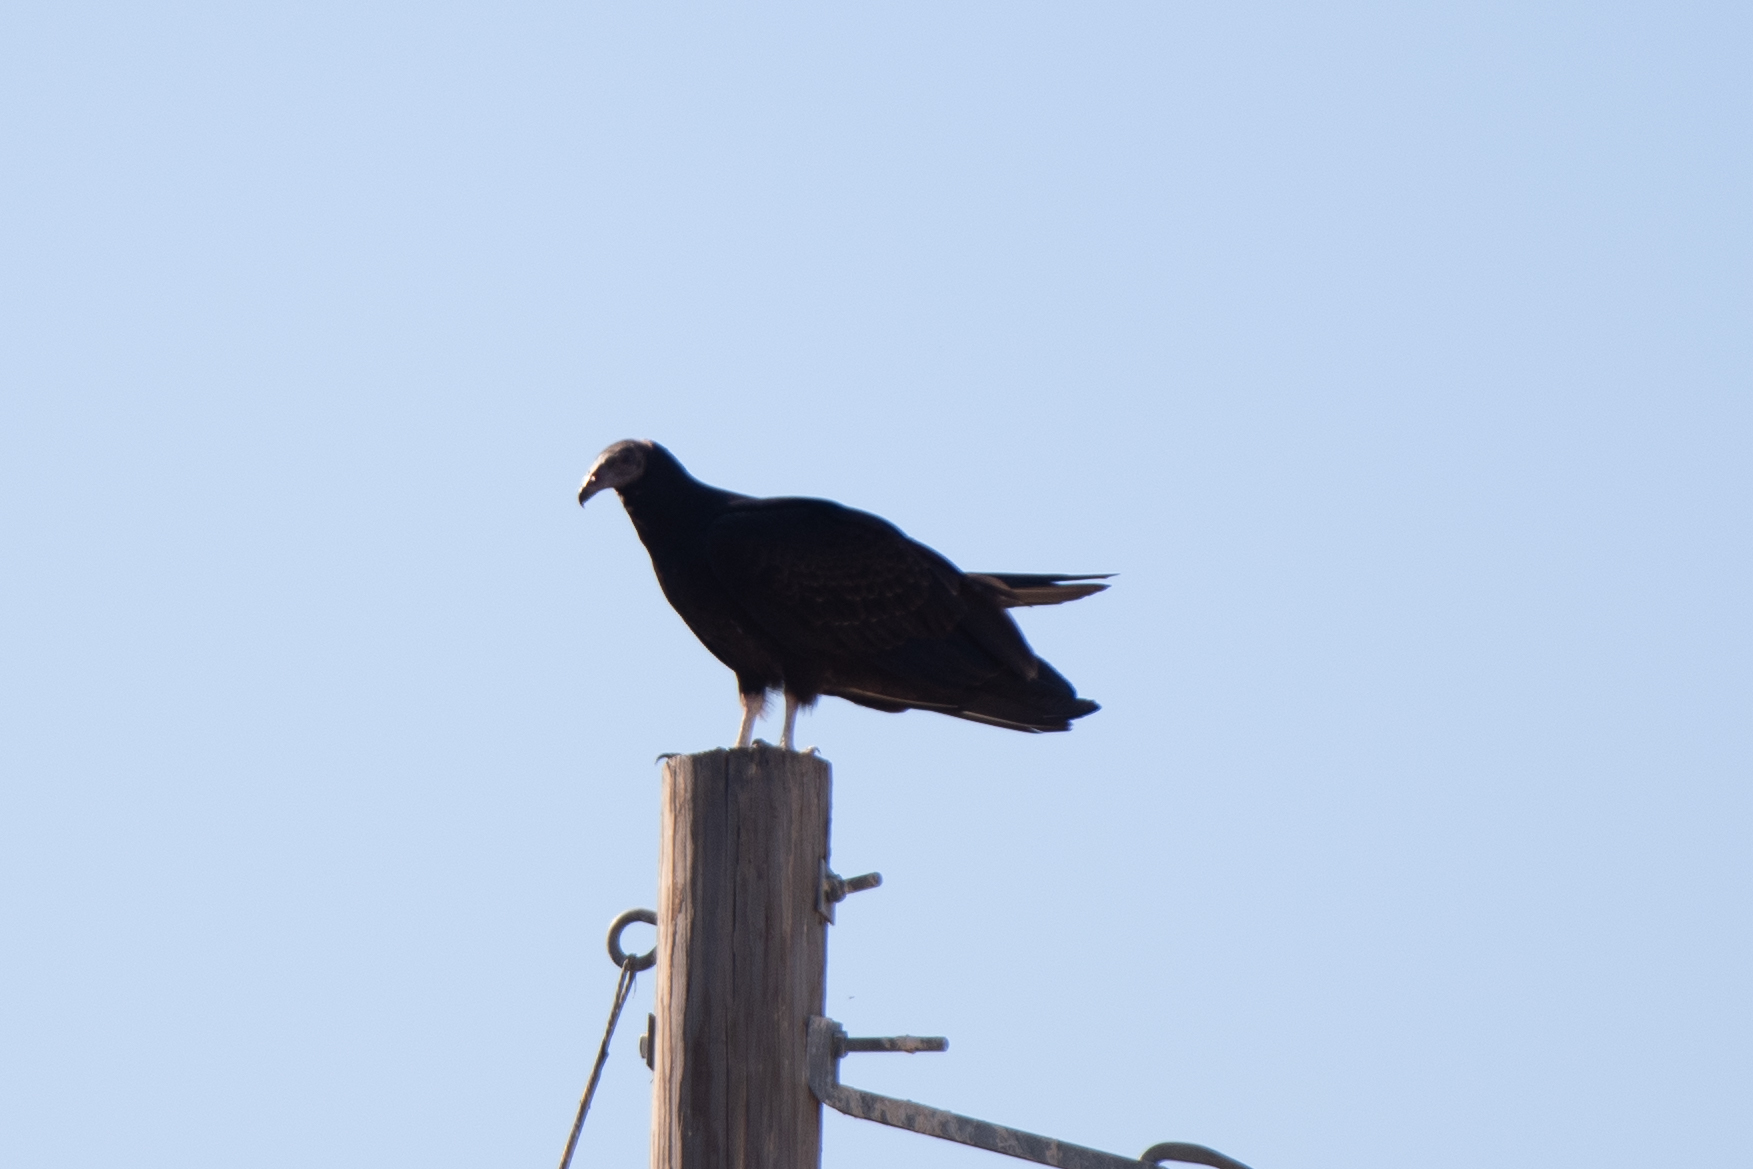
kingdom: Animalia
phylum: Chordata
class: Aves
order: Accipitriformes
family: Cathartidae
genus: Cathartes
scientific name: Cathartes aura
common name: Turkey vulture
